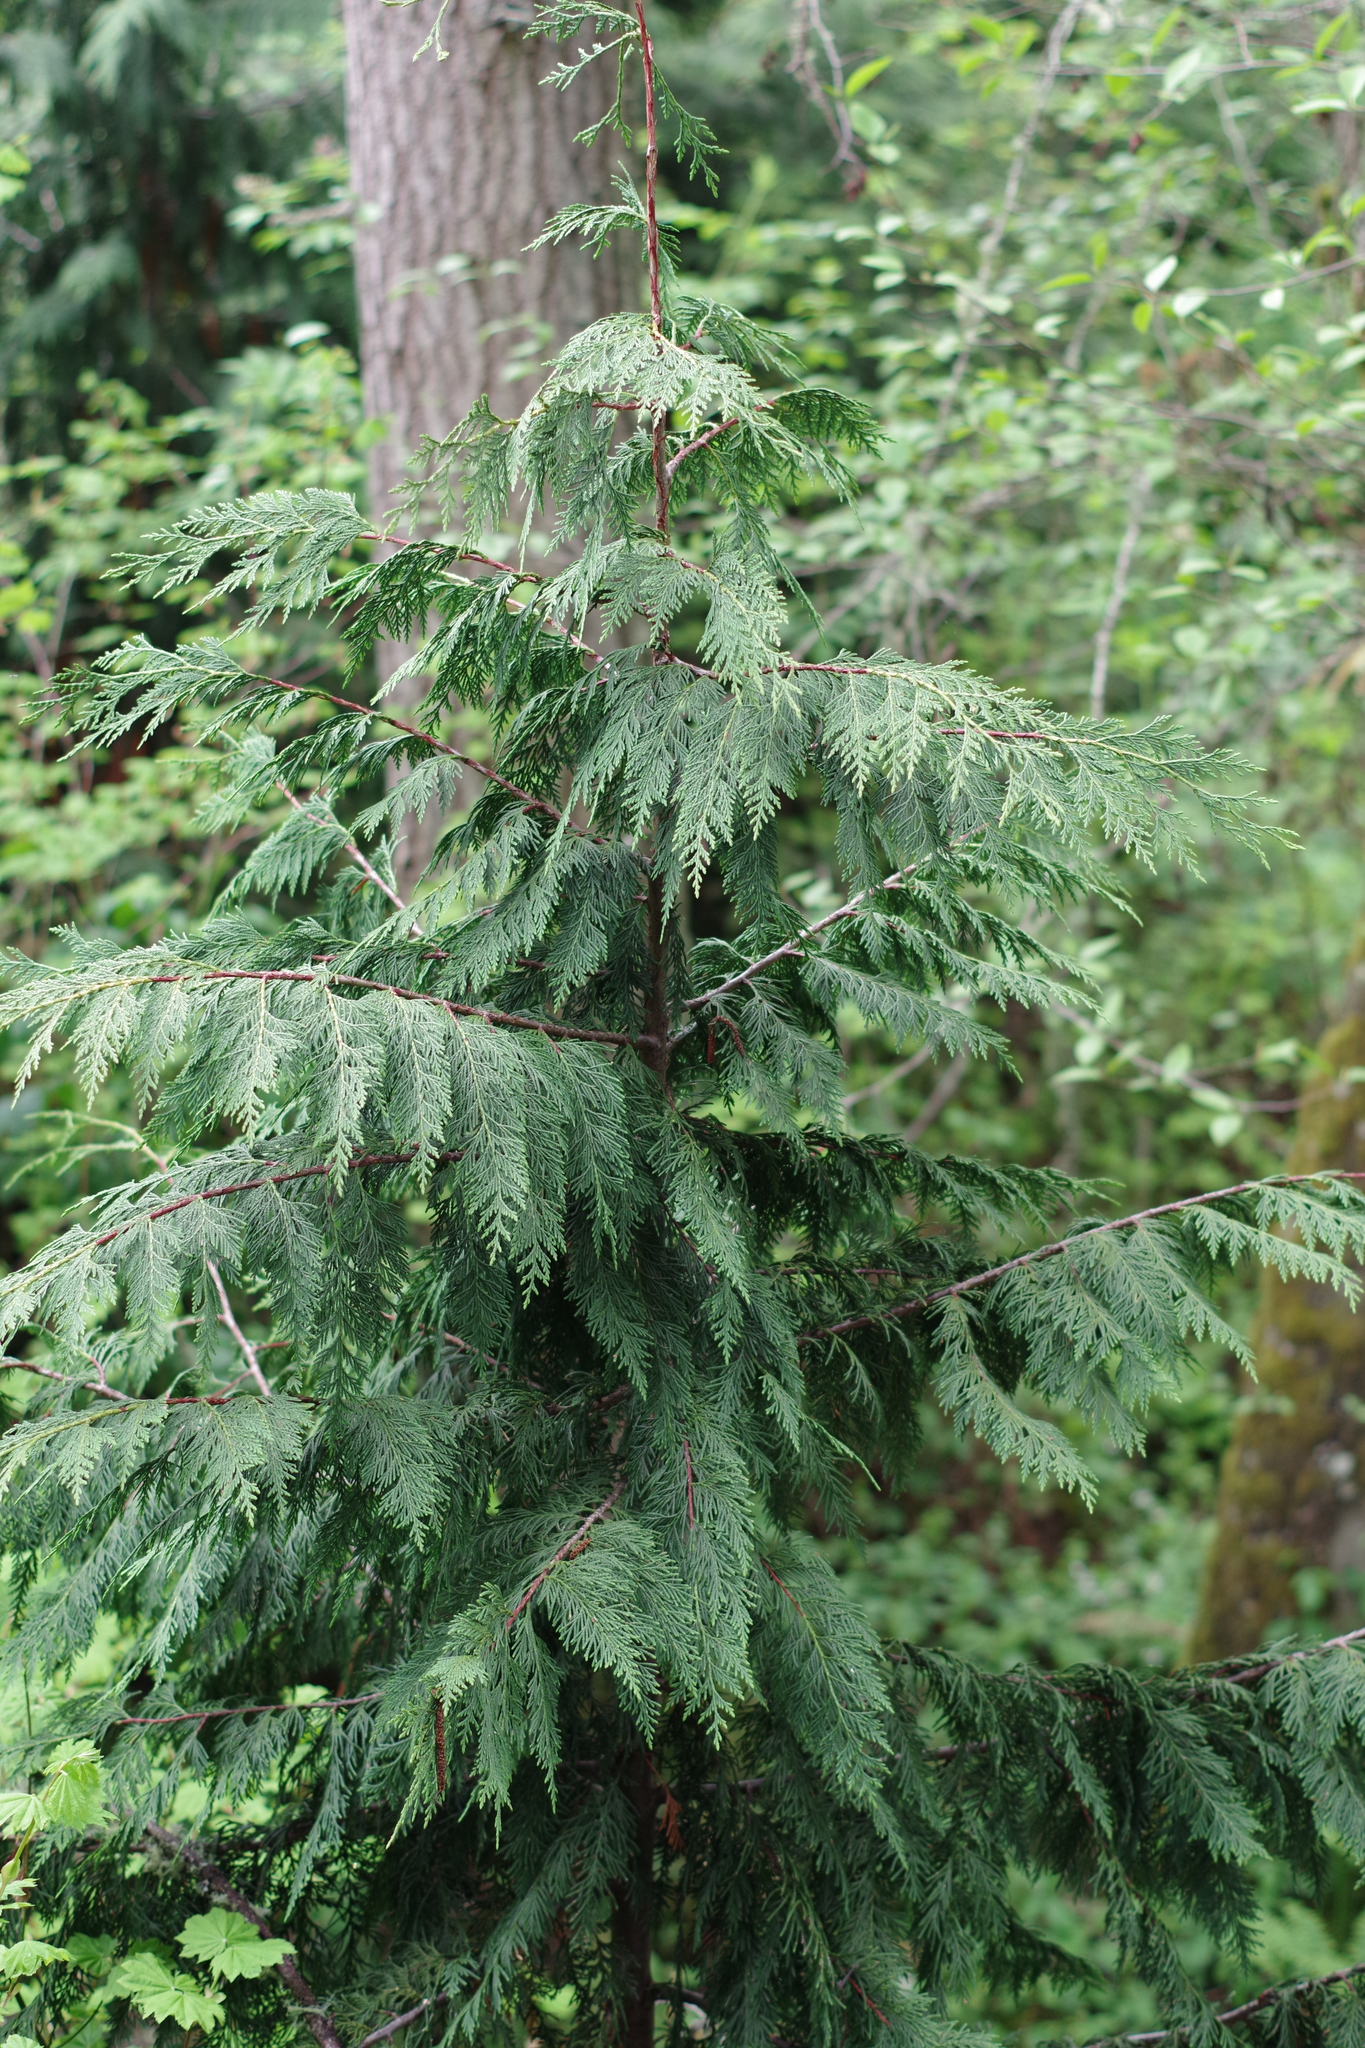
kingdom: Plantae
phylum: Tracheophyta
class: Pinopsida
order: Pinales
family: Cupressaceae
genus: Thuja
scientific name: Thuja plicata
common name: Western red-cedar
